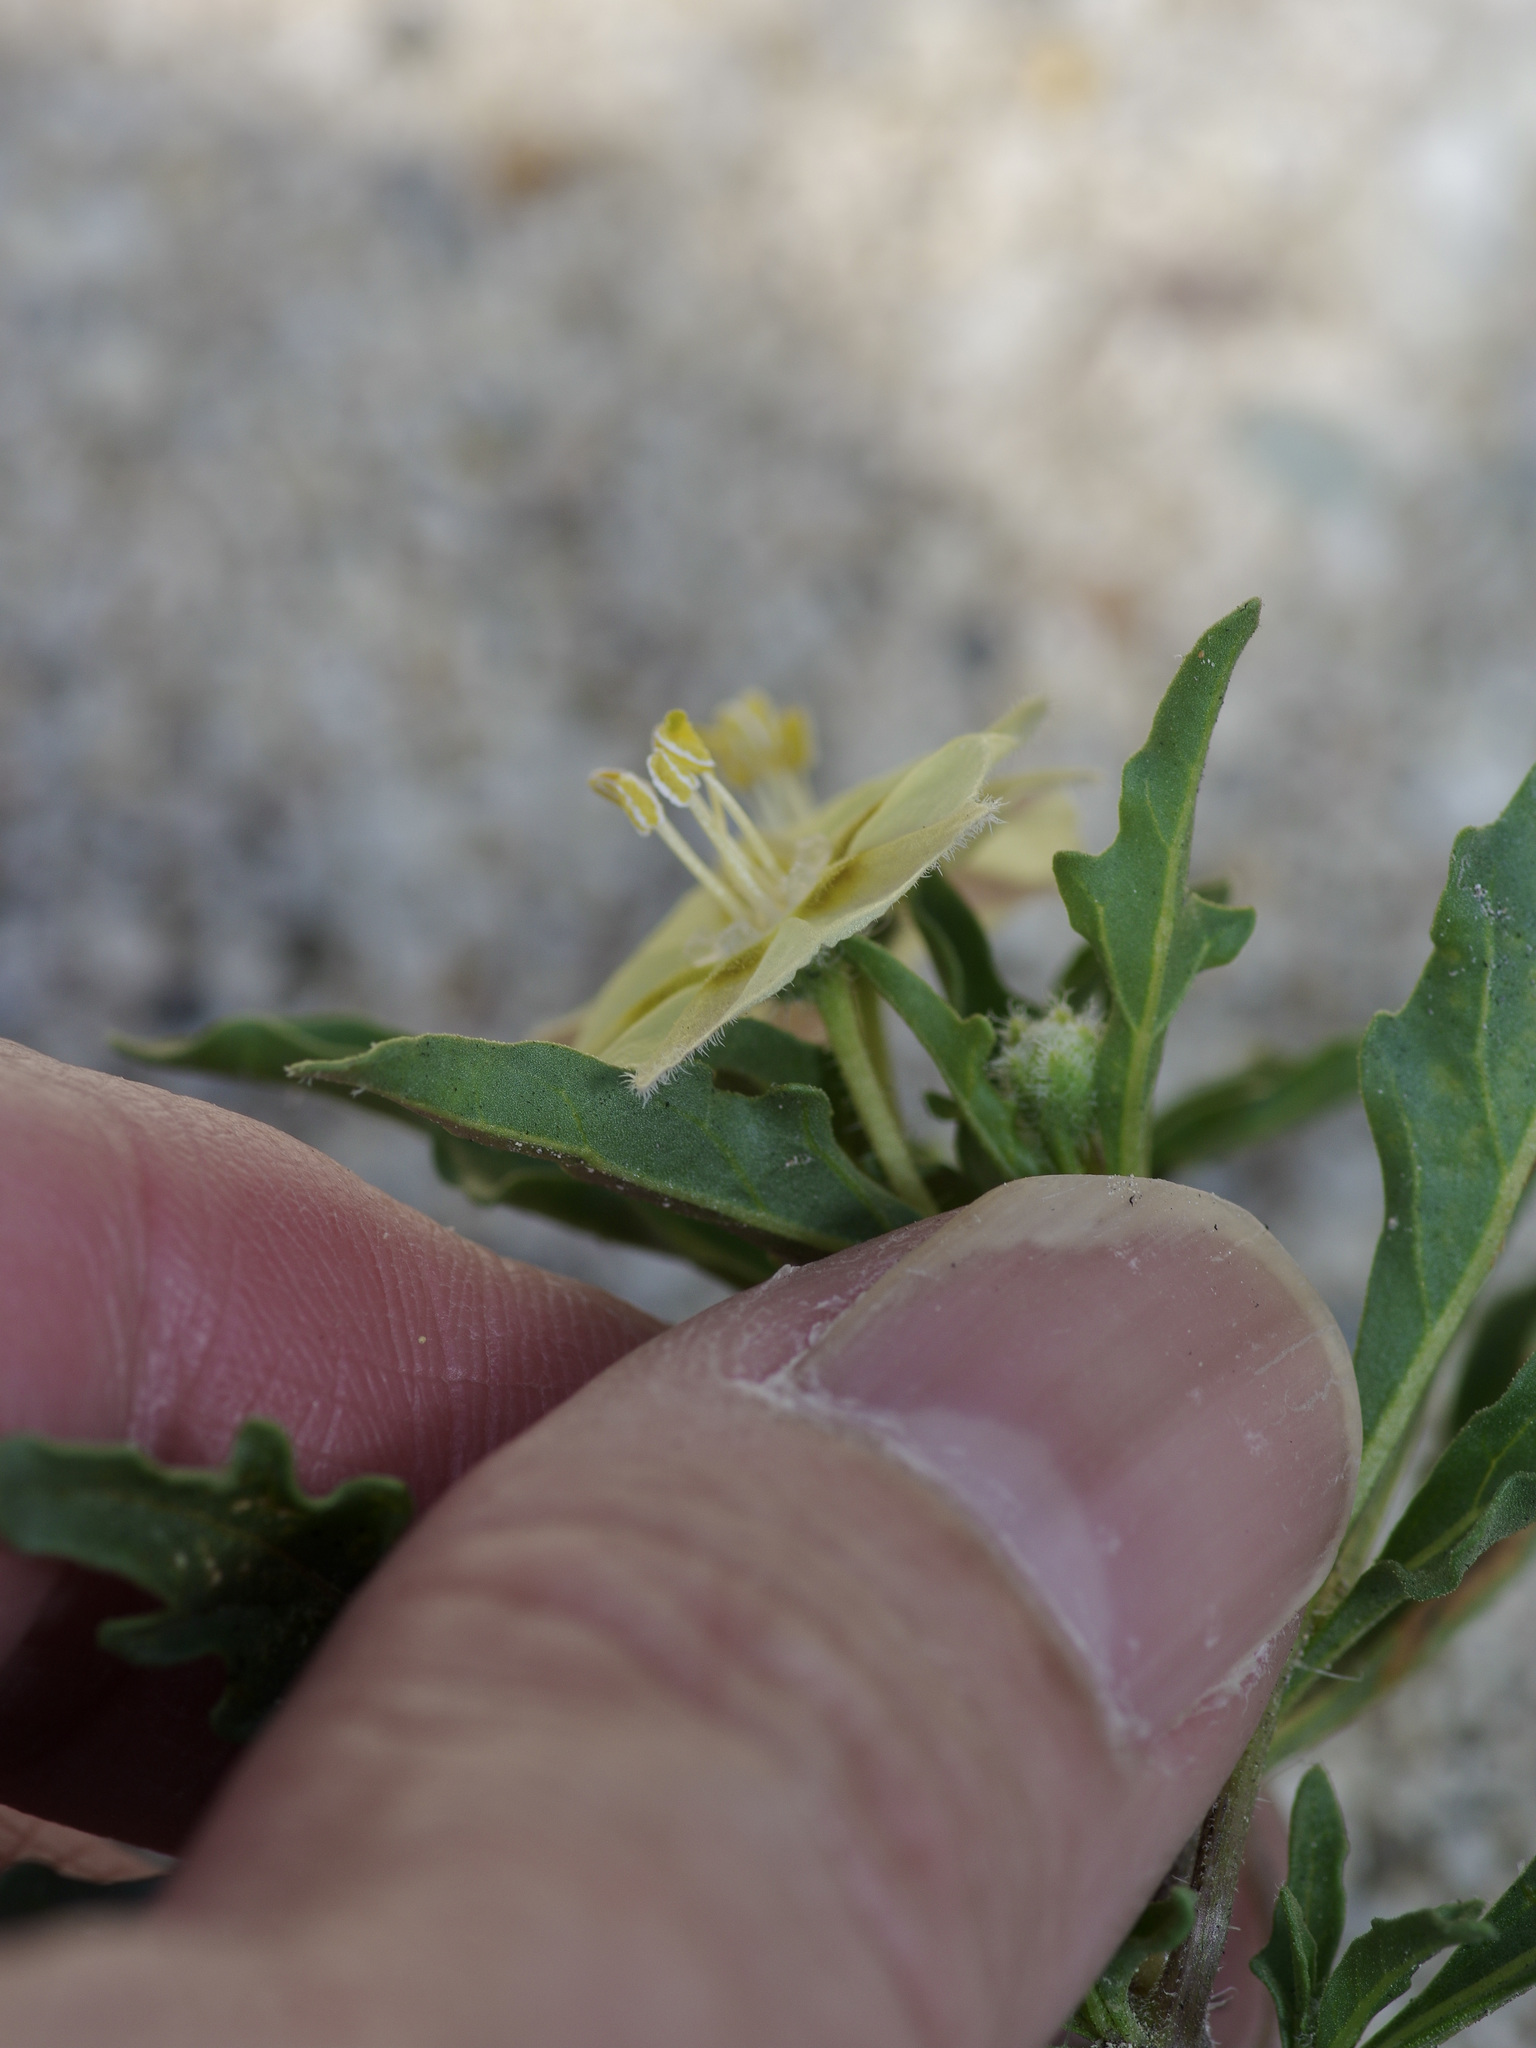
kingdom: Plantae
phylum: Tracheophyta
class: Magnoliopsida
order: Solanales
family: Solanaceae
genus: Chamaesaracha
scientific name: Chamaesaracha edwardsiana
